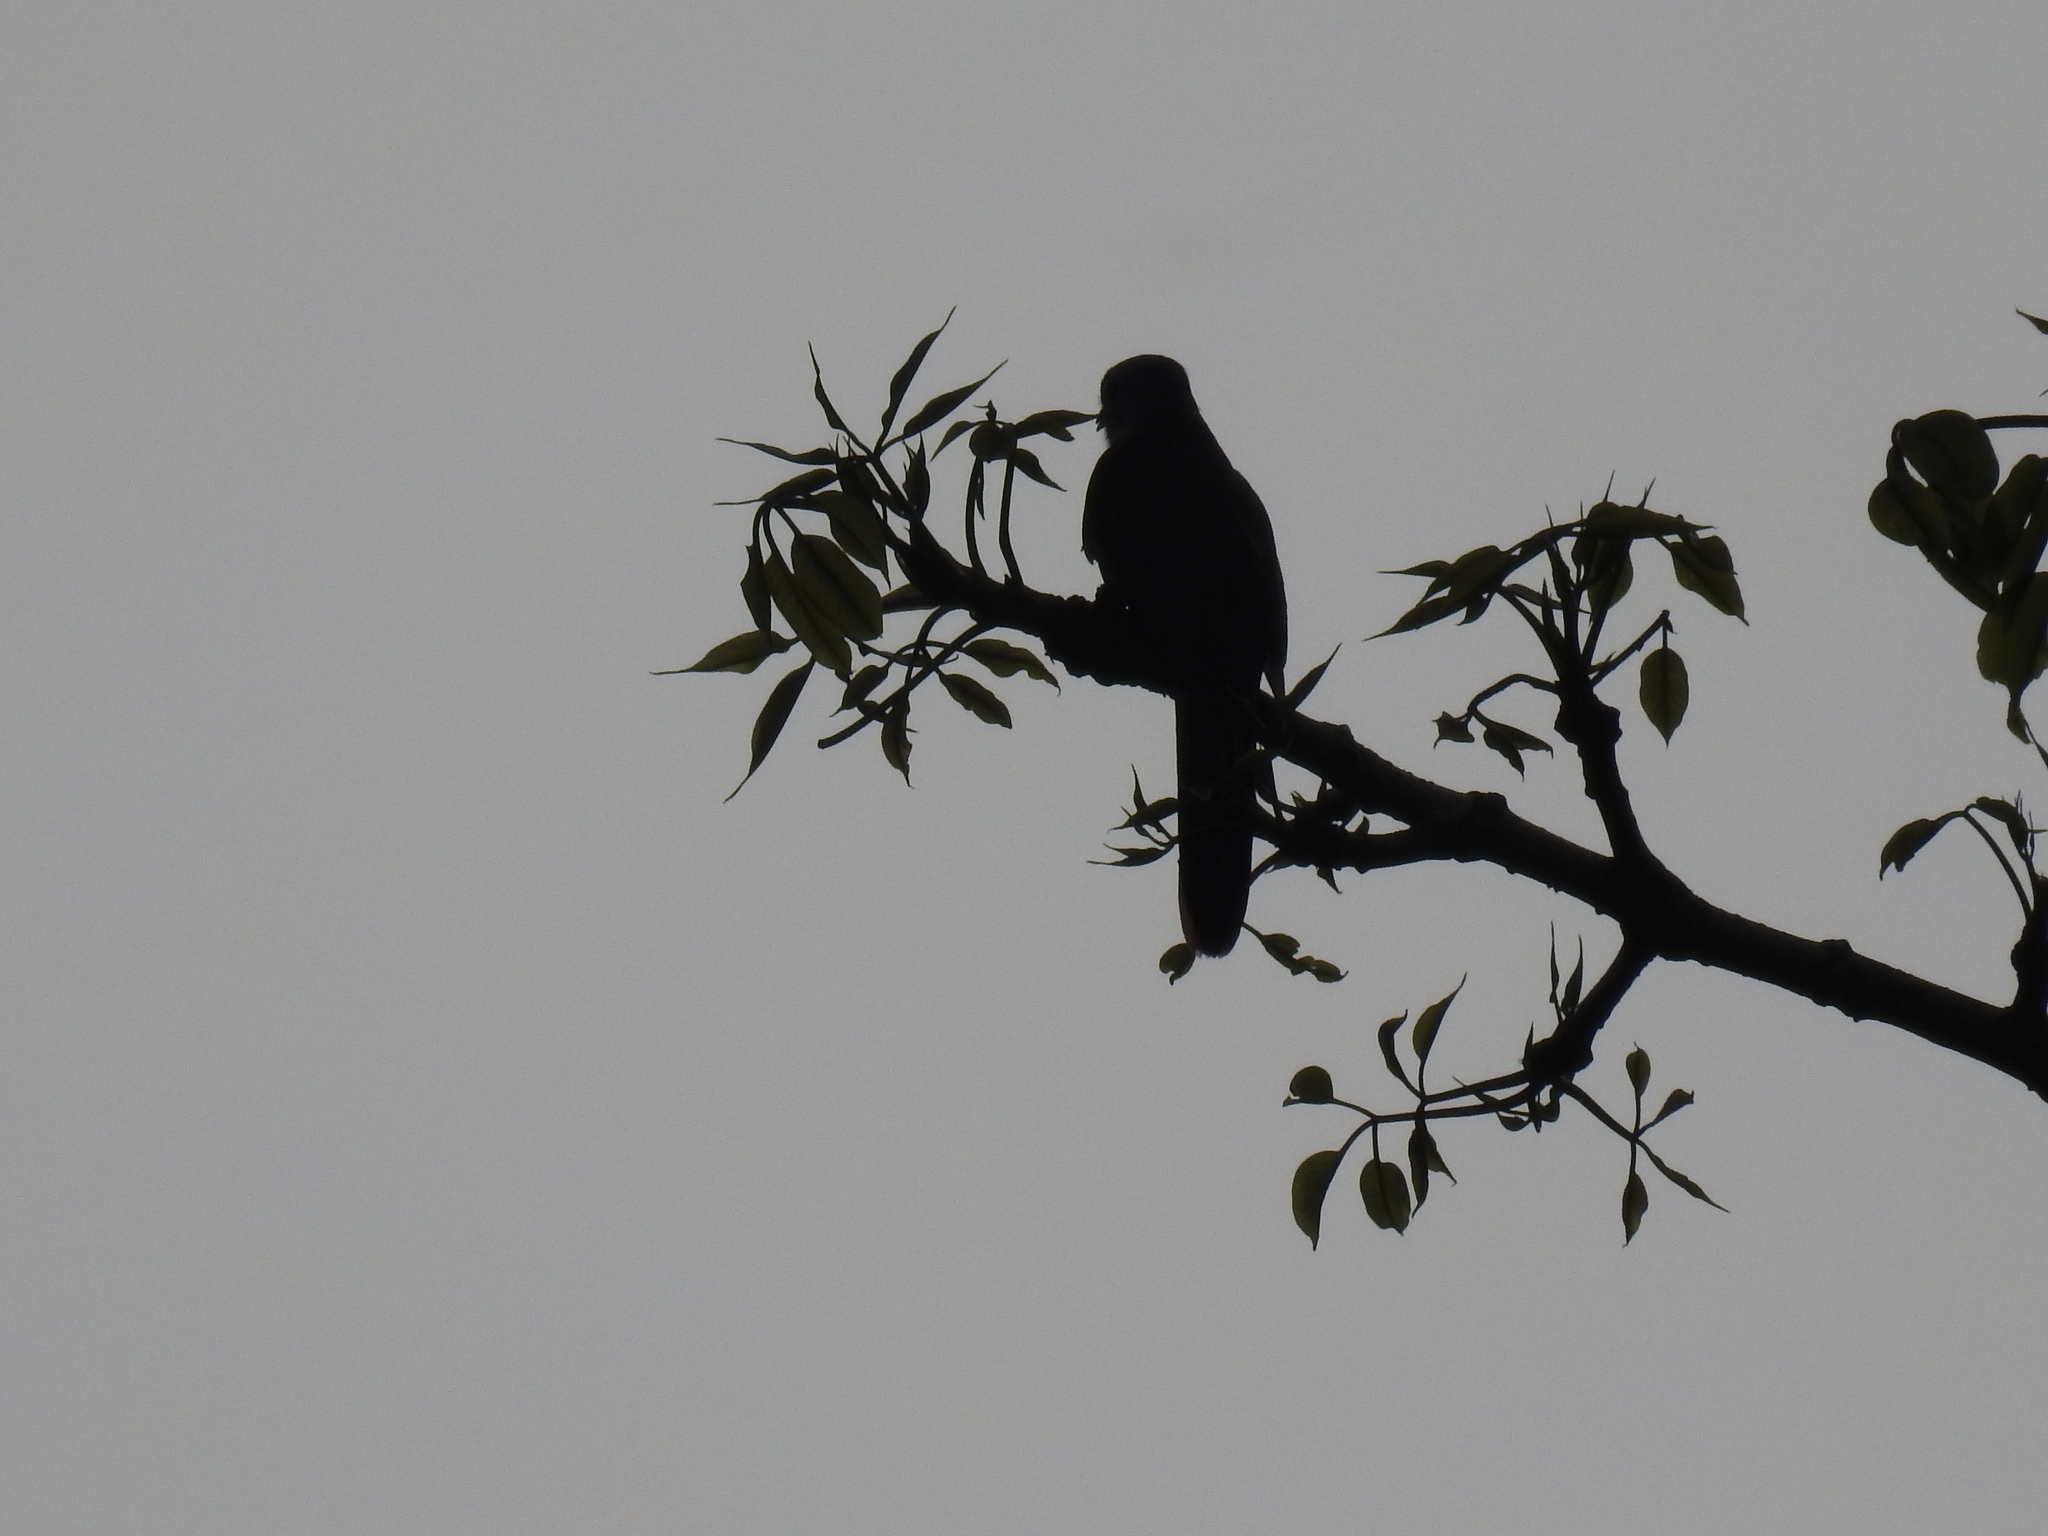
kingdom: Animalia
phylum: Chordata
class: Aves
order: Cuculiformes
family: Cuculidae
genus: Cacomantis
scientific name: Cacomantis merulinus
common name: Plaintive cuckoo
